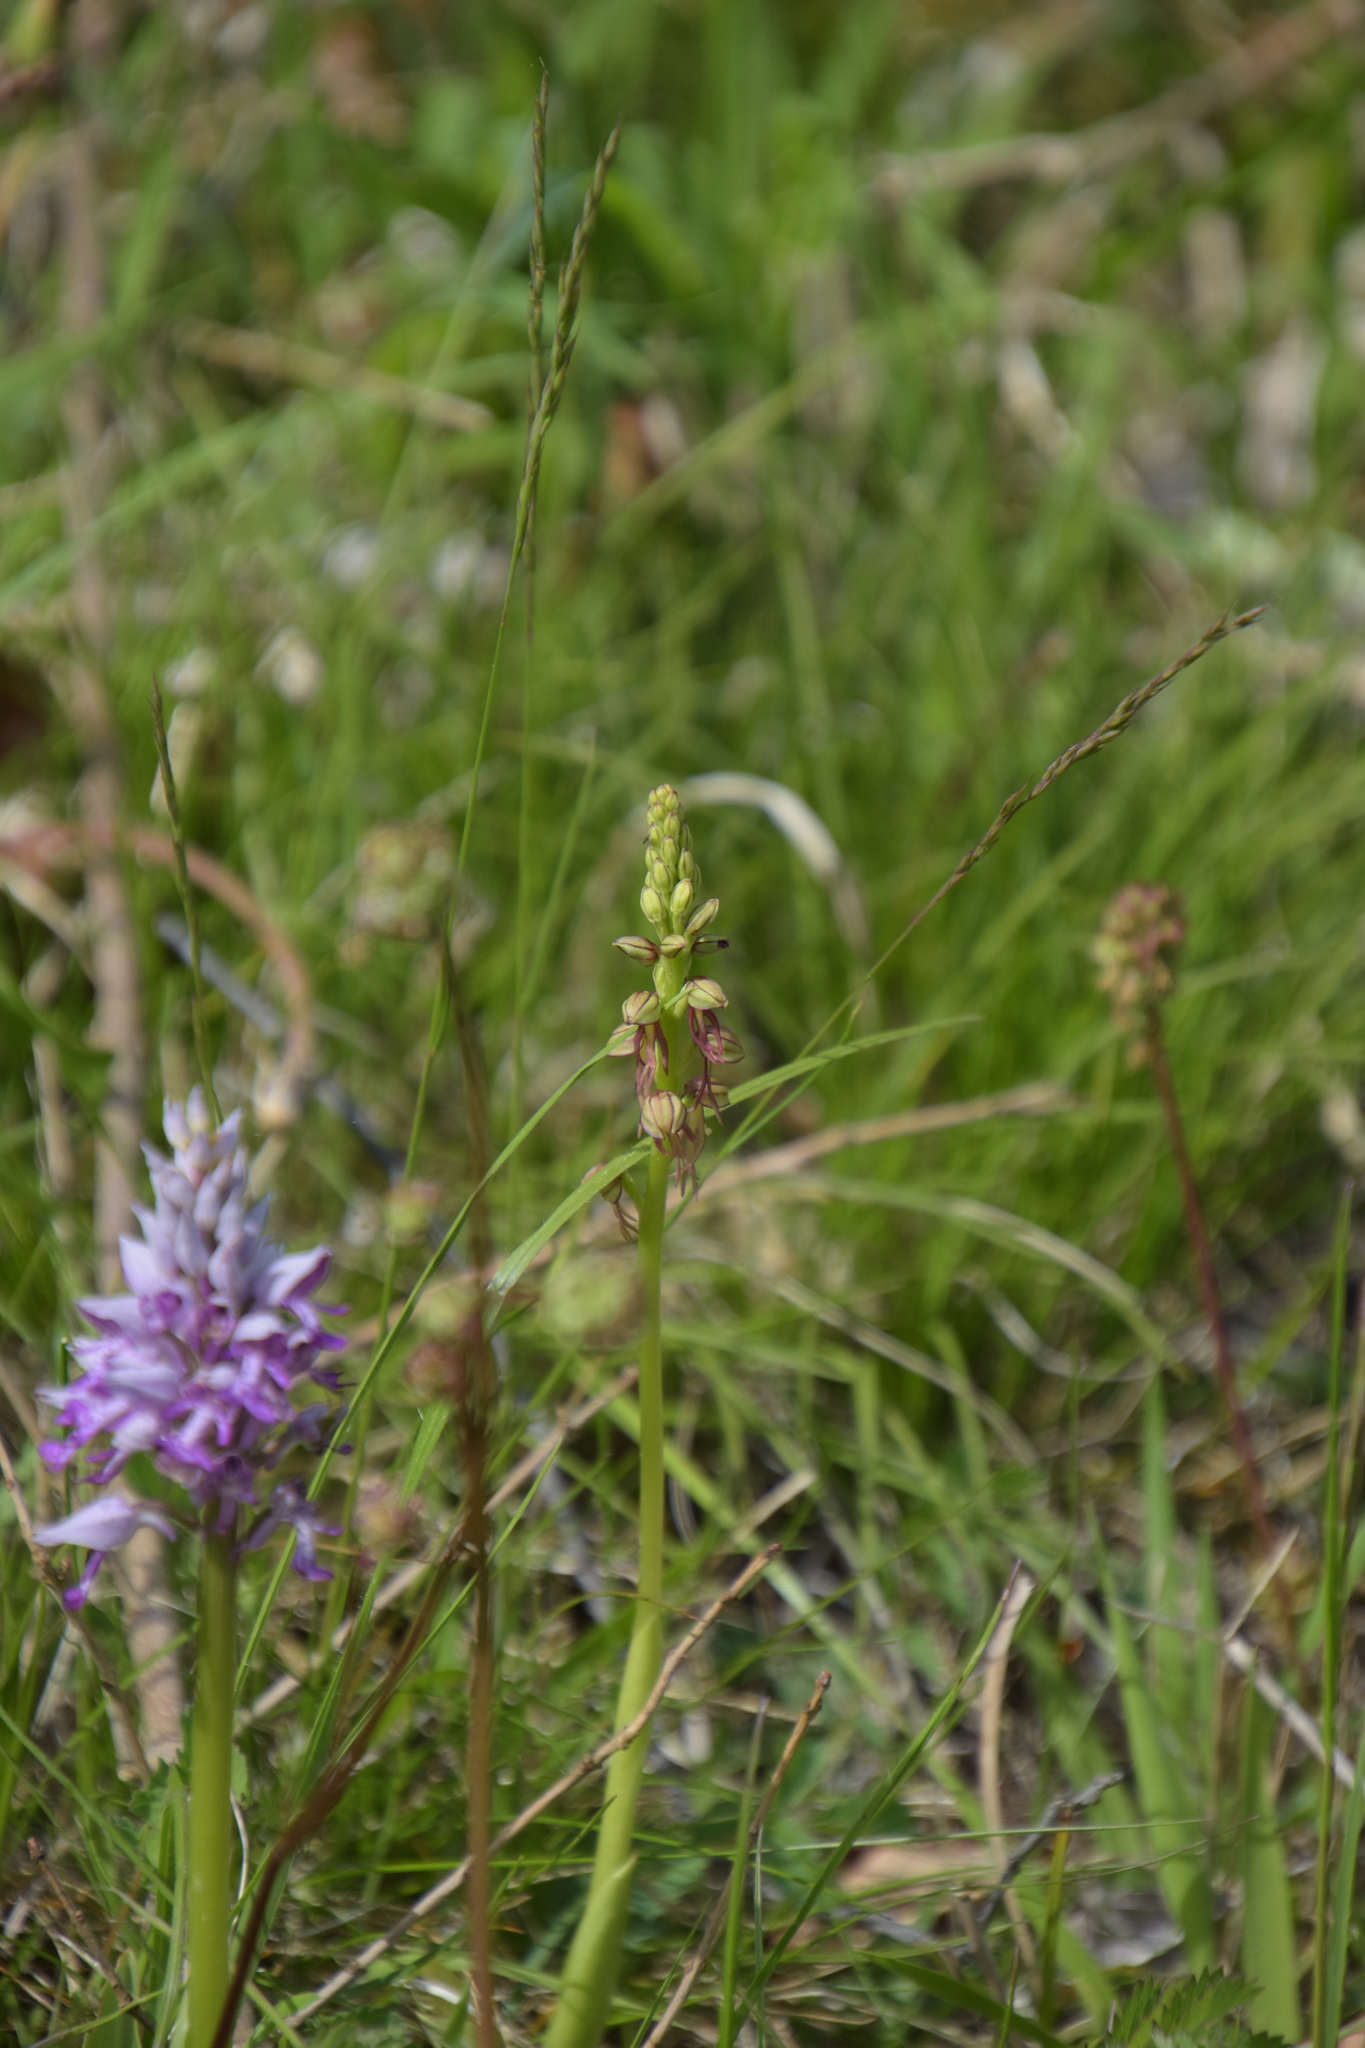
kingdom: Plantae
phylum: Tracheophyta
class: Liliopsida
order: Asparagales
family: Orchidaceae
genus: Orchis
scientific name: Orchis anthropophora
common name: Man orchid
